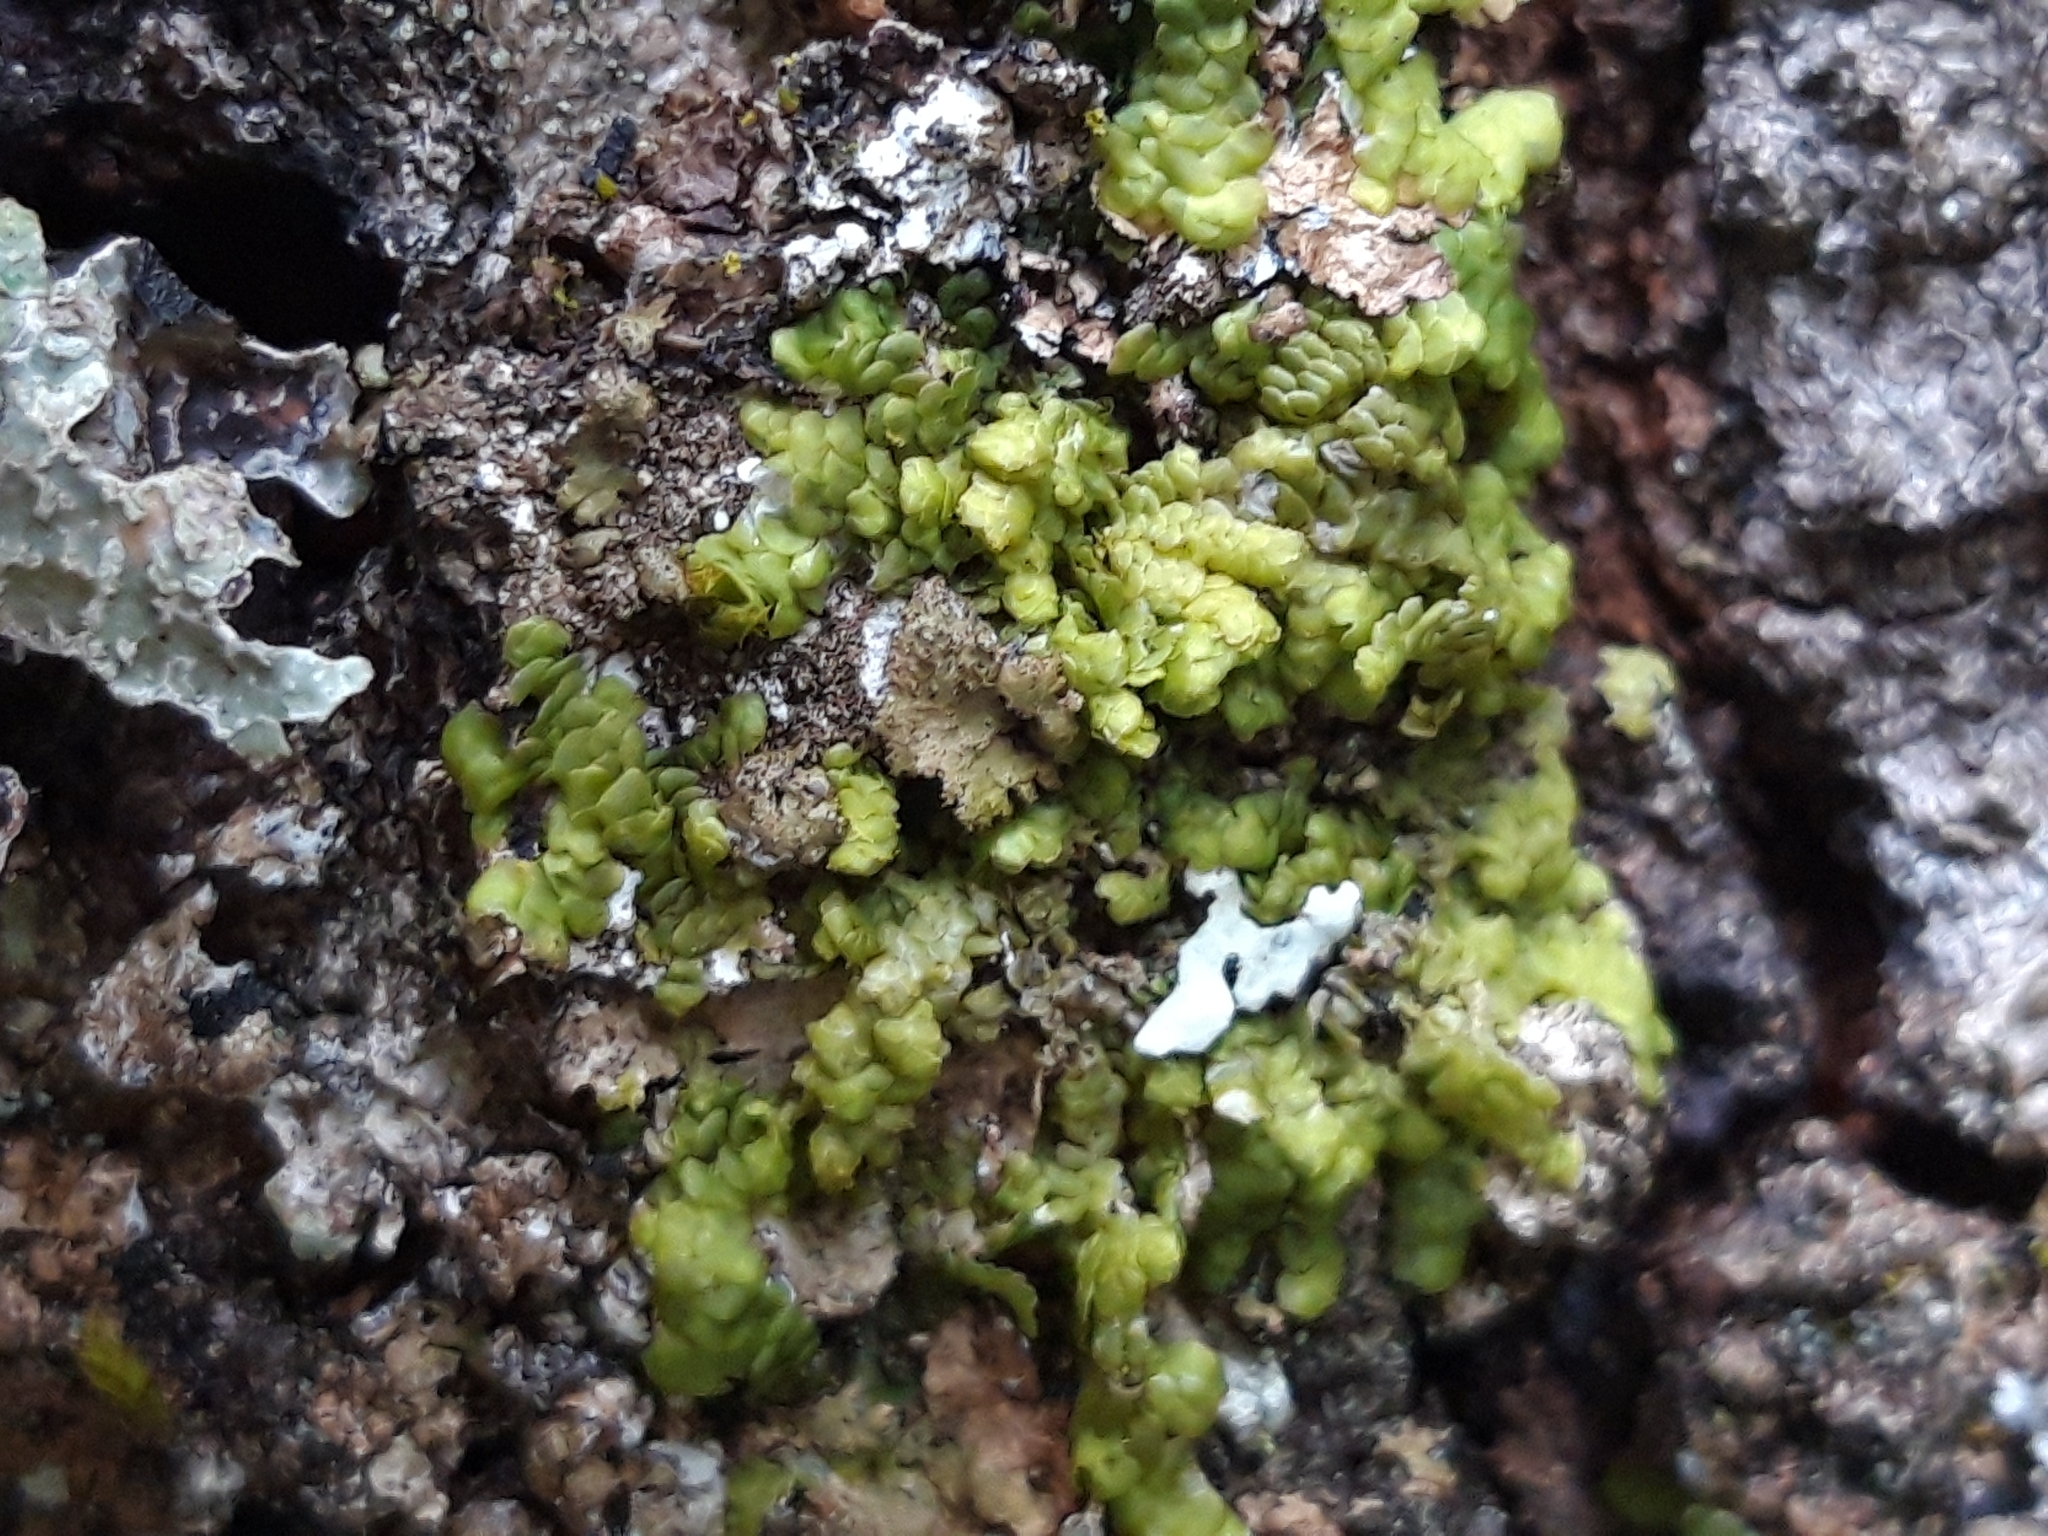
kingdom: Plantae
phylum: Marchantiophyta
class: Jungermanniopsida
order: Porellales
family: Radulaceae
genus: Radula
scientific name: Radula complanata
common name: Flat-leaved scalewort
